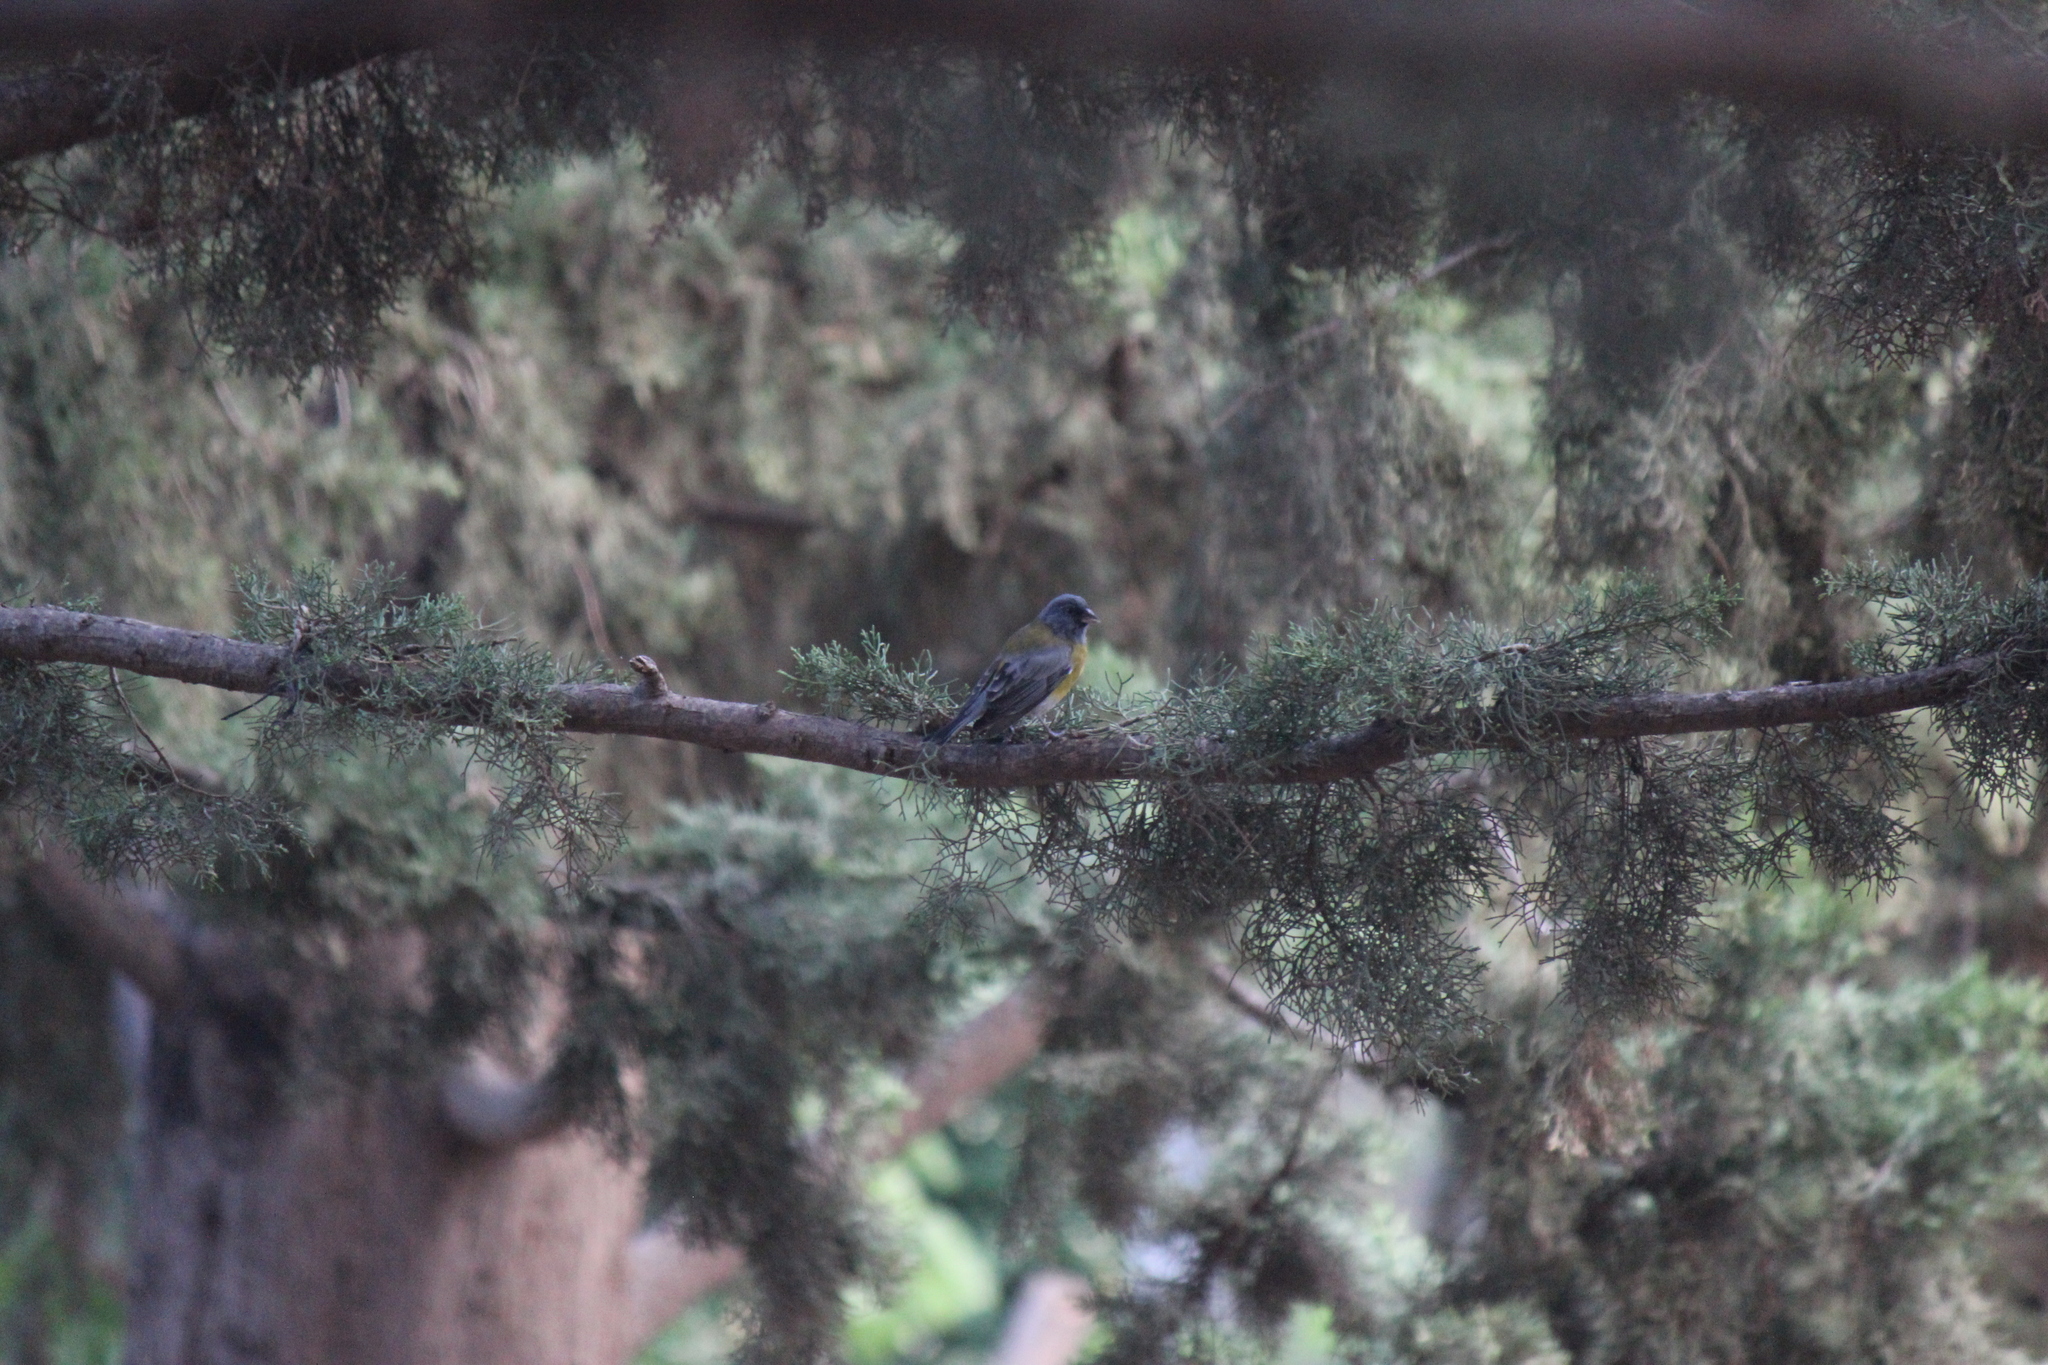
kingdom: Animalia
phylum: Chordata
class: Aves
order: Passeriformes
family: Thraupidae
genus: Phrygilus
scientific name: Phrygilus gayi
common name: Grey-hooded sierra finch
